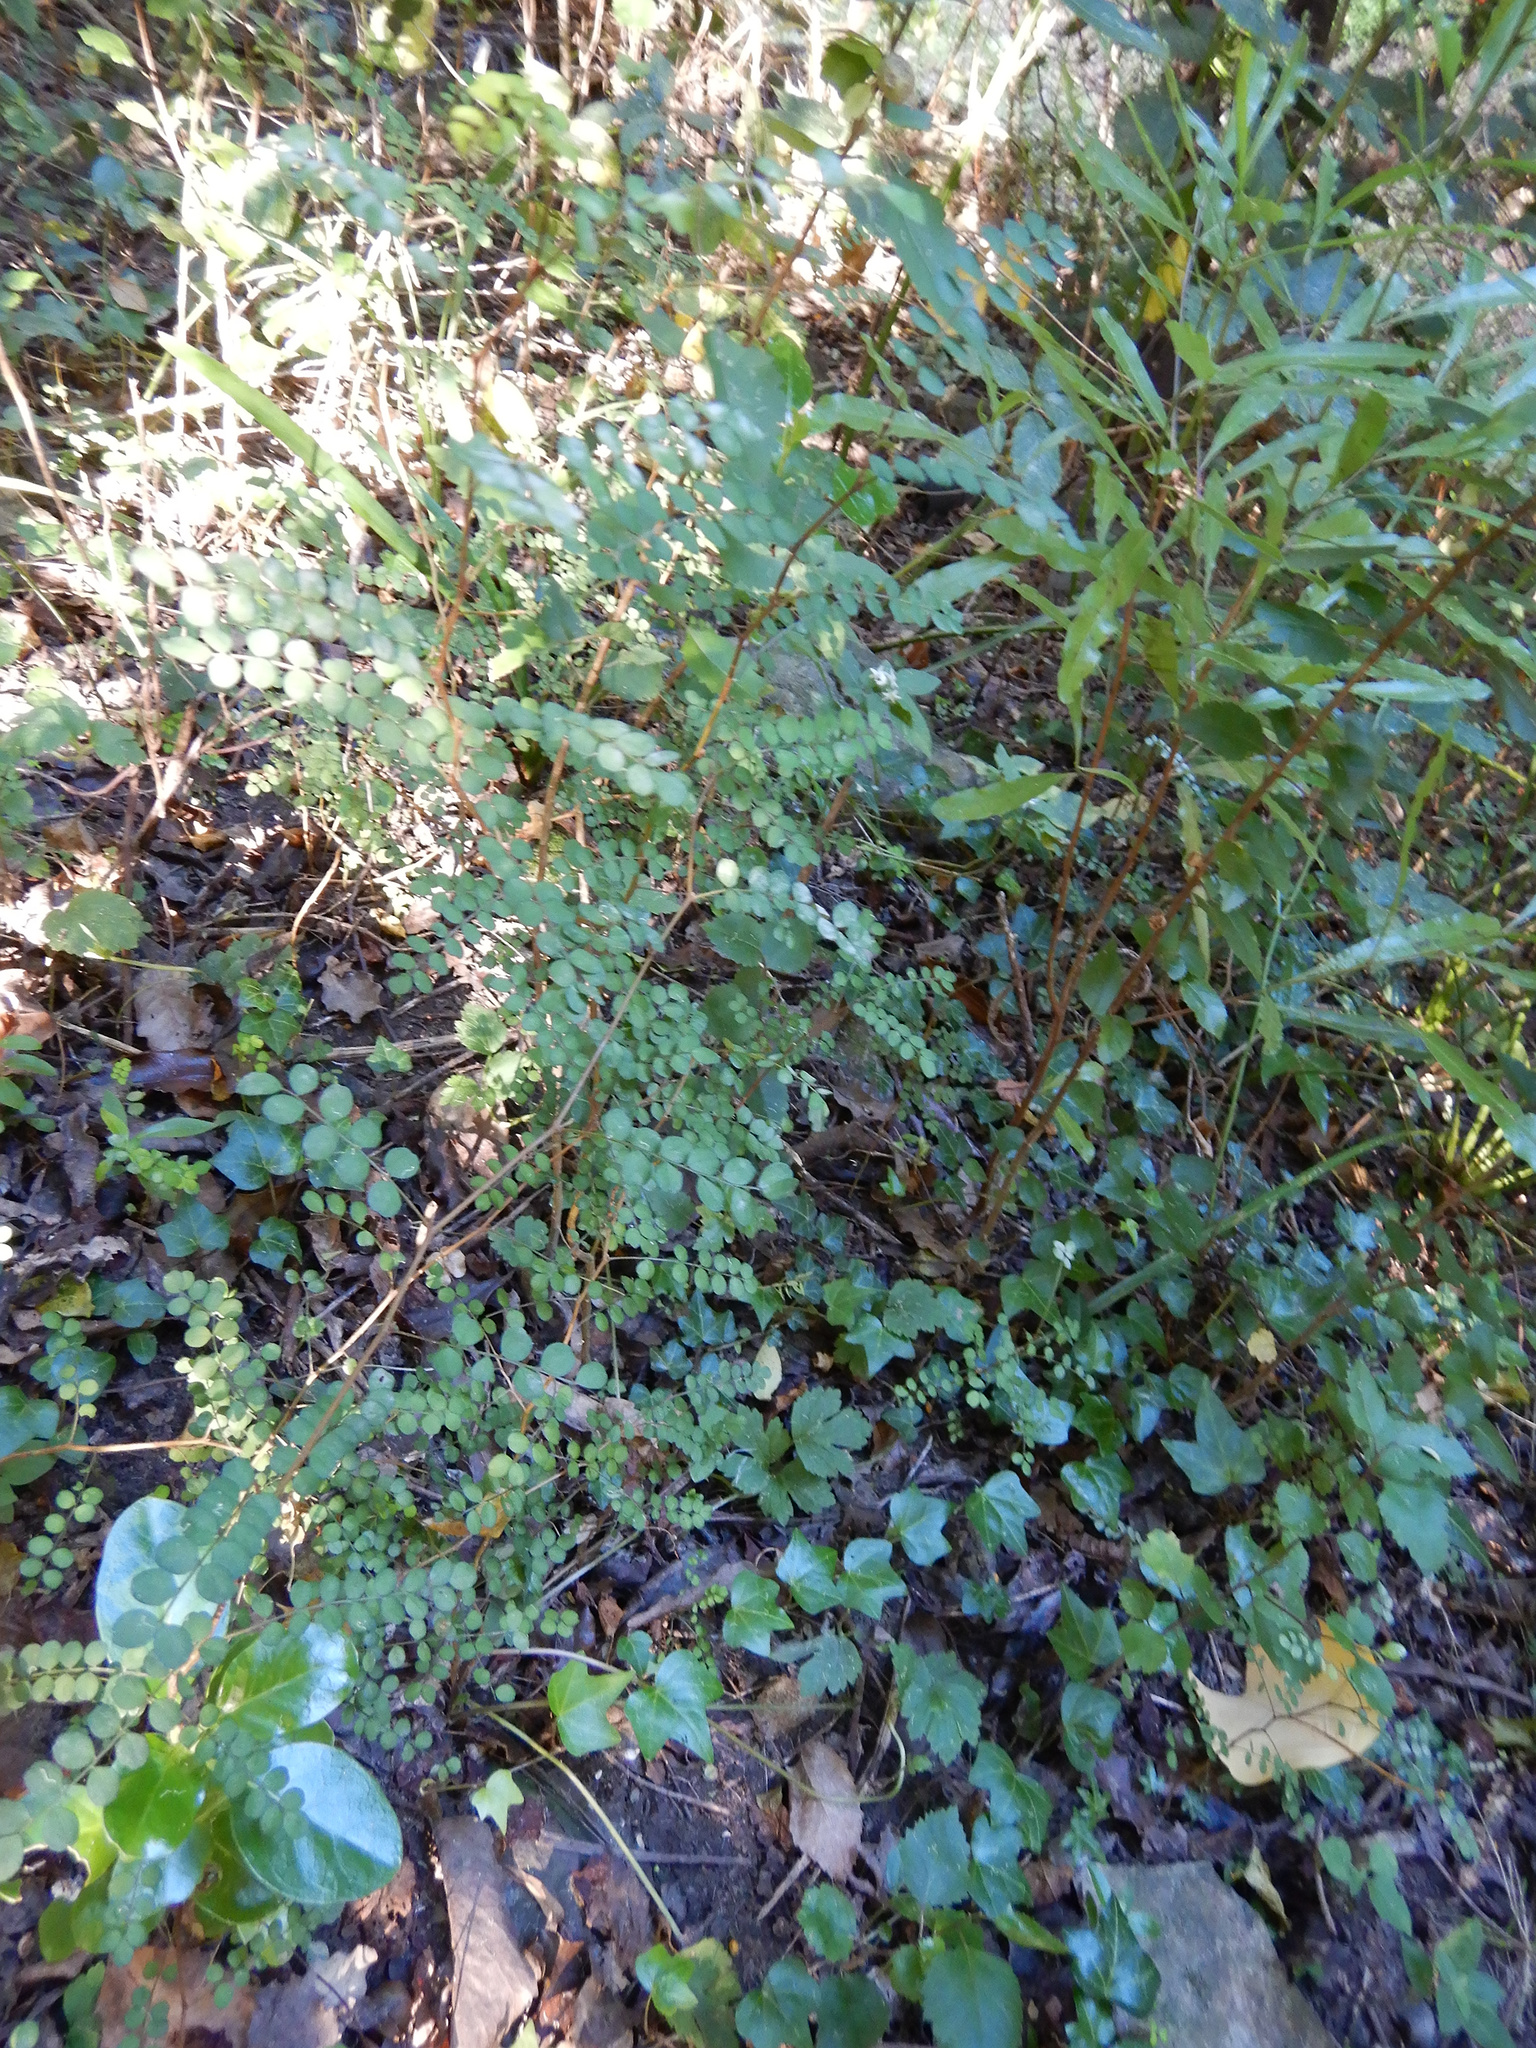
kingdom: Plantae
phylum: Tracheophyta
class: Magnoliopsida
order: Fabales
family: Fabaceae
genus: Sophora
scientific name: Sophora microphylla
